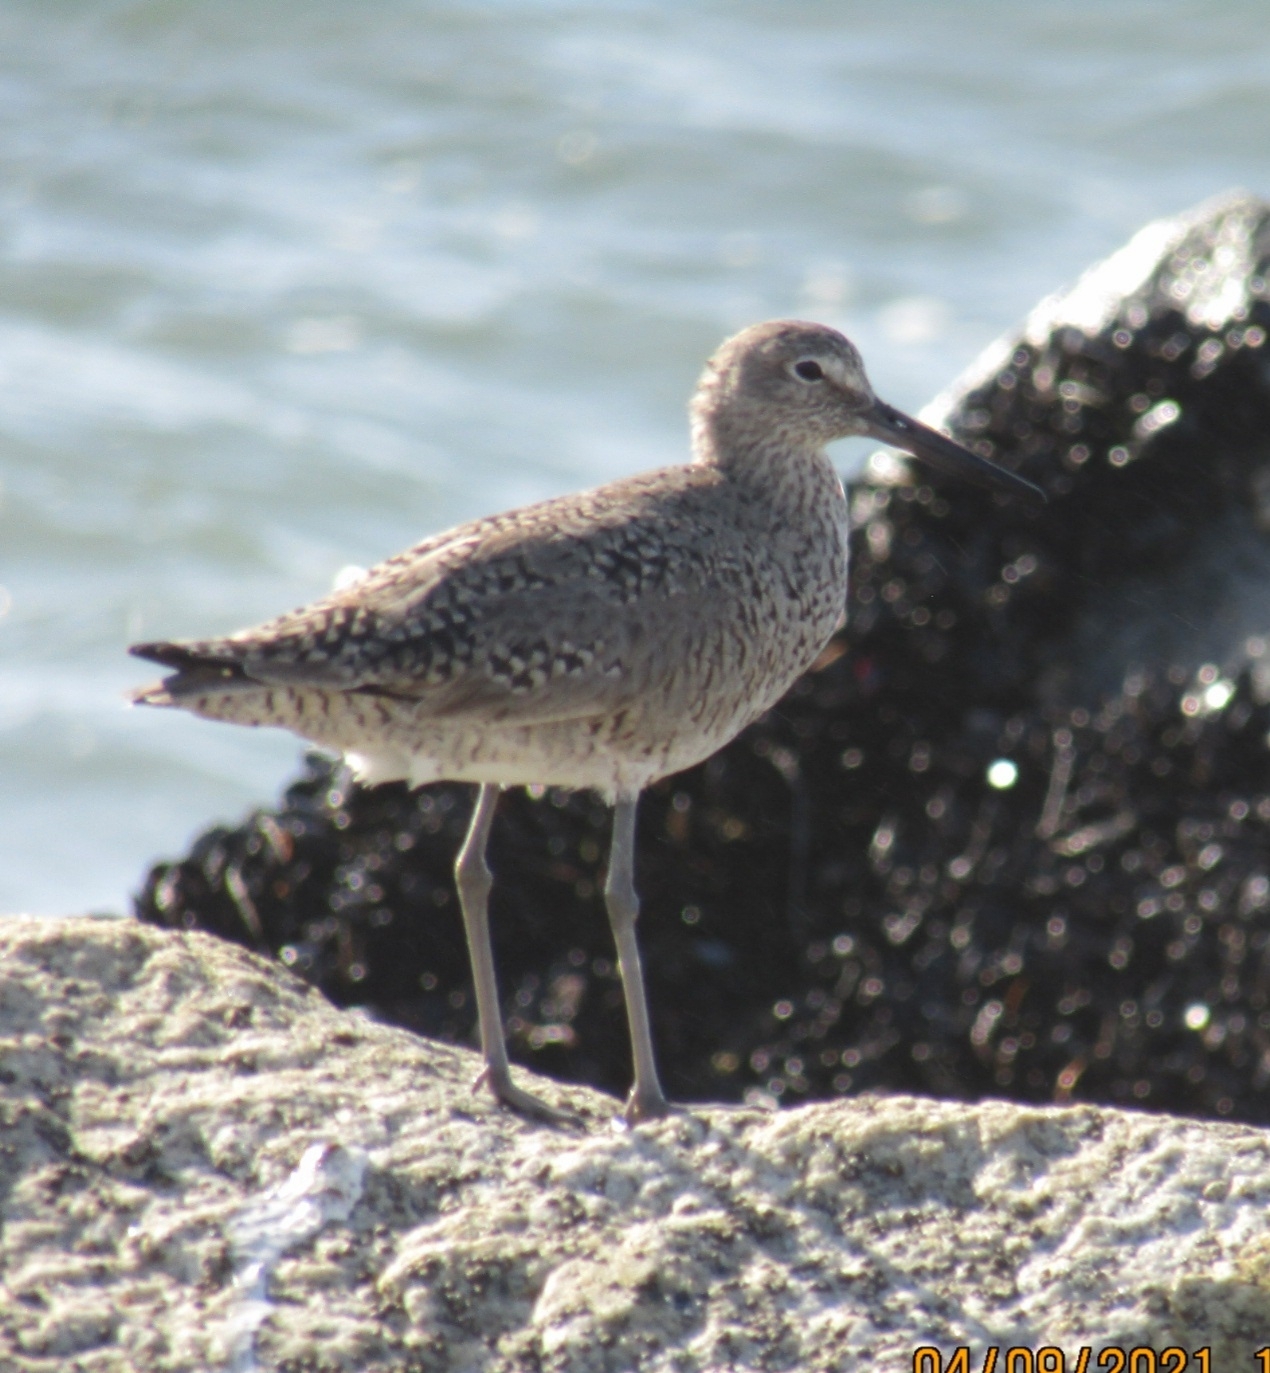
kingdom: Animalia
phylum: Chordata
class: Aves
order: Charadriiformes
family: Scolopacidae
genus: Tringa
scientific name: Tringa semipalmata
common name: Willet
